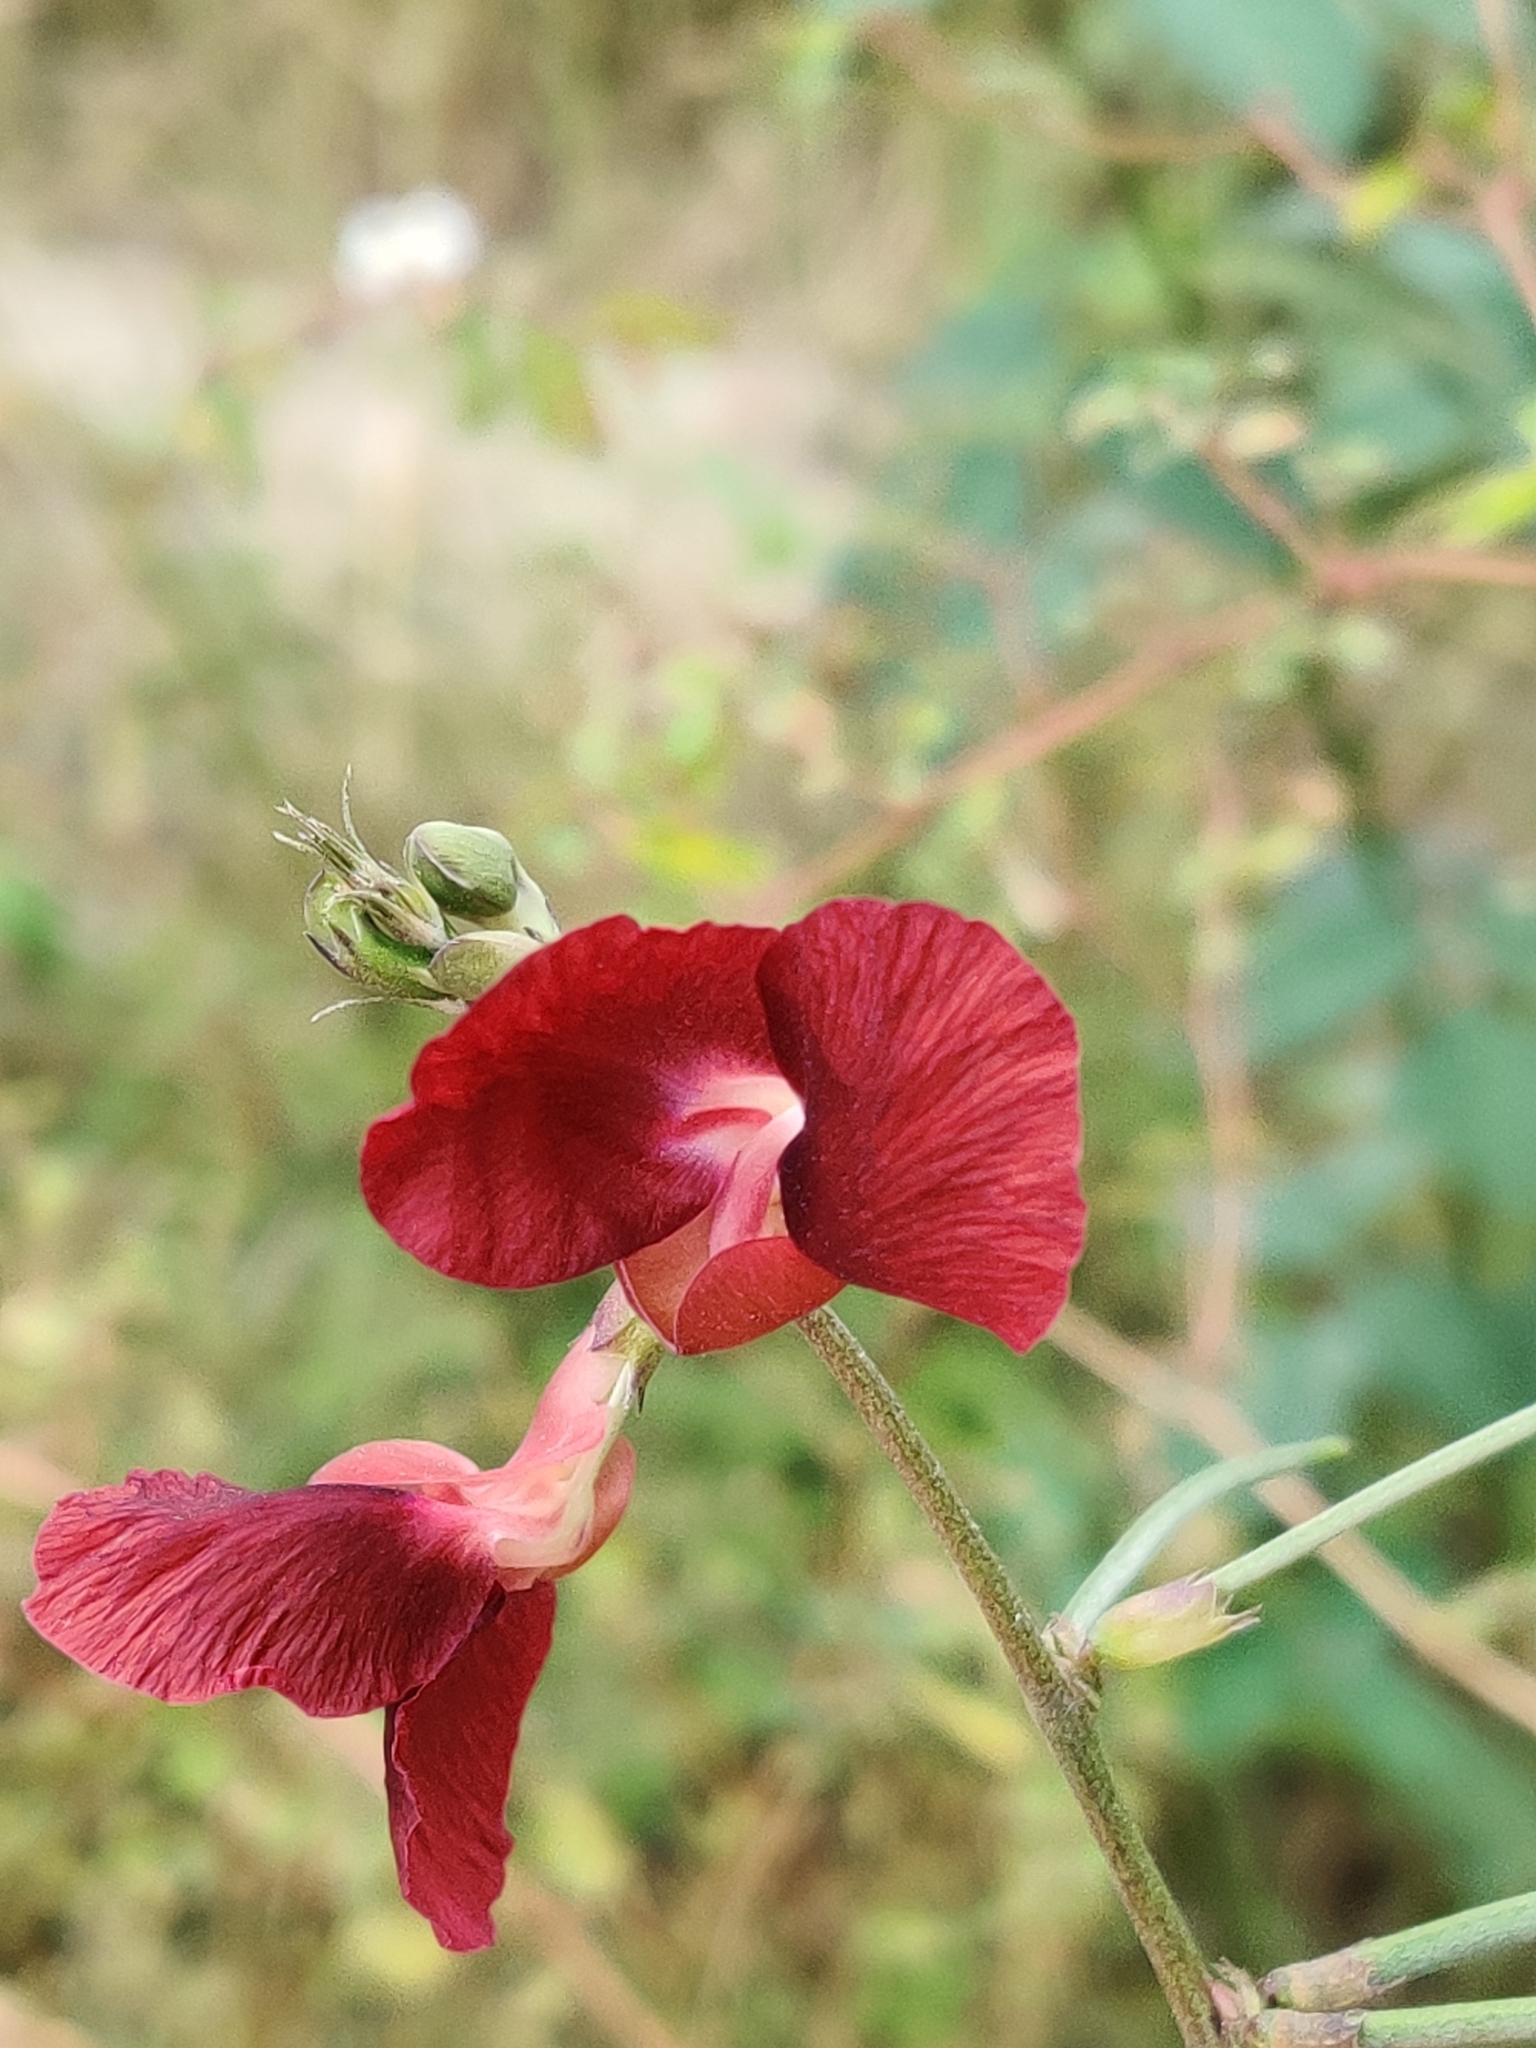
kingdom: Plantae
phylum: Tracheophyta
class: Magnoliopsida
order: Fabales
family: Fabaceae
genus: Macroptilium
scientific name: Macroptilium lathyroides
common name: Wild bushbean
